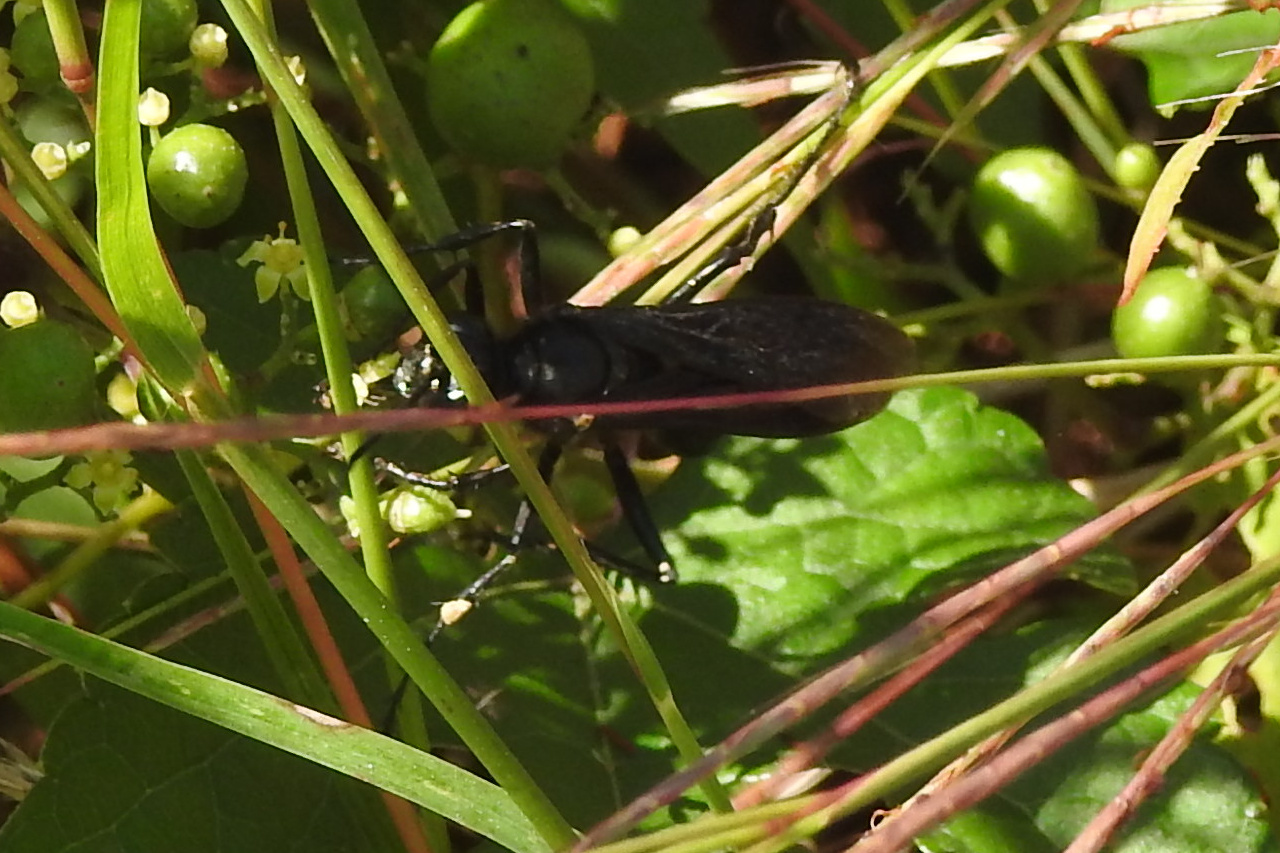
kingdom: Animalia
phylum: Arthropoda
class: Insecta
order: Hymenoptera
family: Sphecidae
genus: Sphex
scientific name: Sphex pensylvanicus
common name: Great black digger wasp
